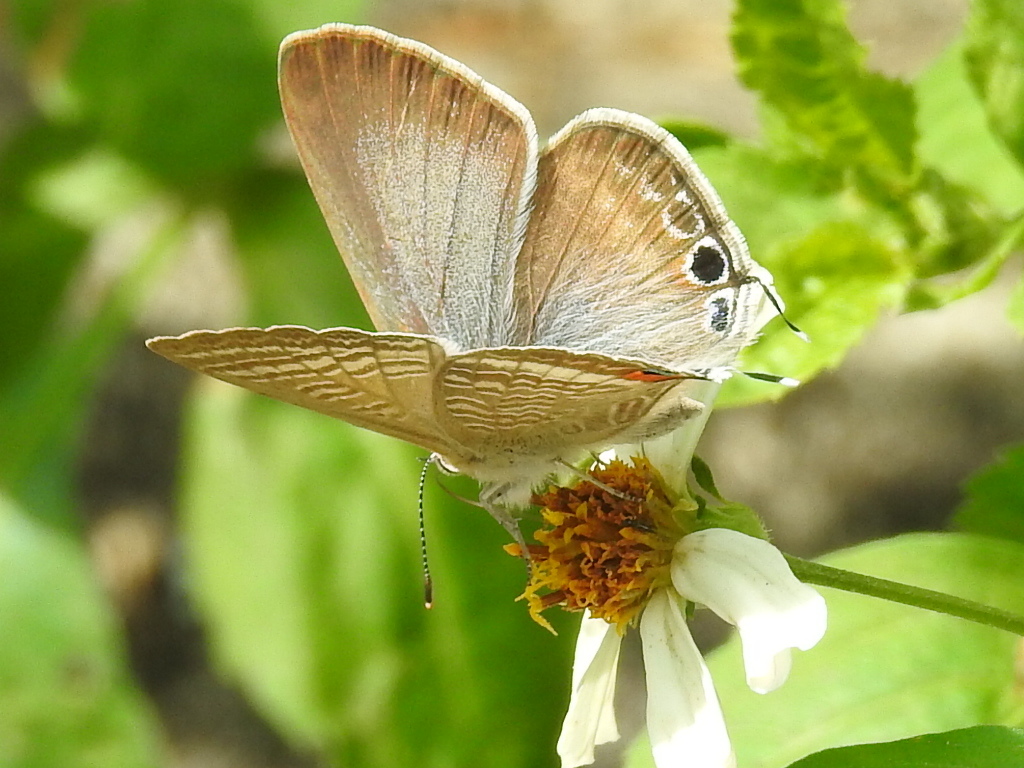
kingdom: Animalia
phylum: Arthropoda
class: Insecta
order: Lepidoptera
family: Lycaenidae
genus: Lampides
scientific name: Lampides boeticus
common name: Long-tailed blue
